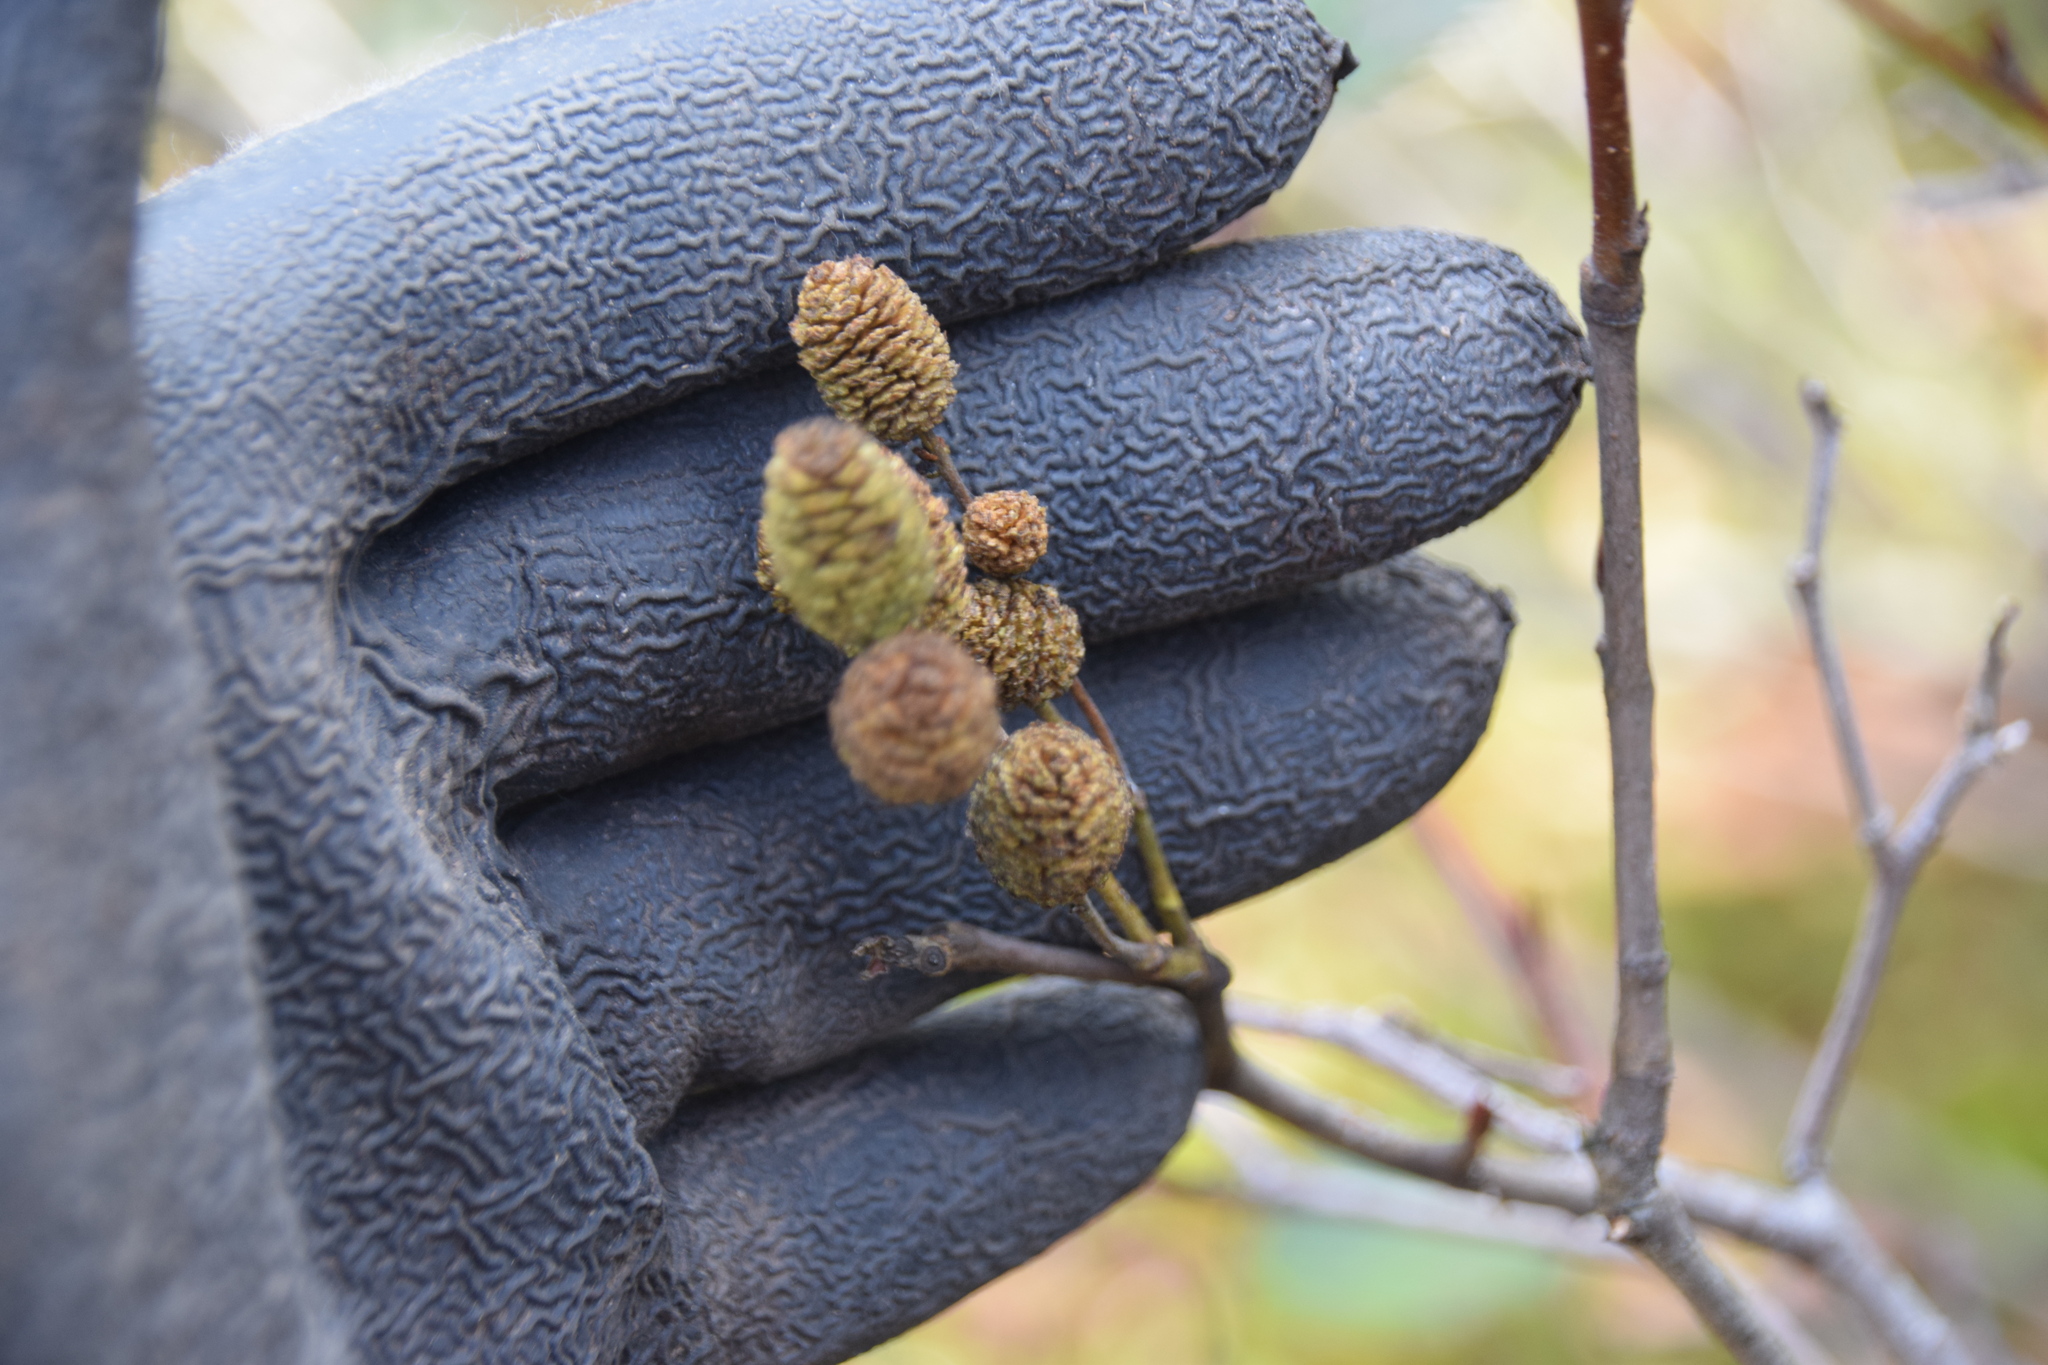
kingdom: Plantae
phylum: Tracheophyta
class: Magnoliopsida
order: Fagales
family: Betulaceae
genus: Alnus
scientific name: Alnus alnobetula
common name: Green alder
